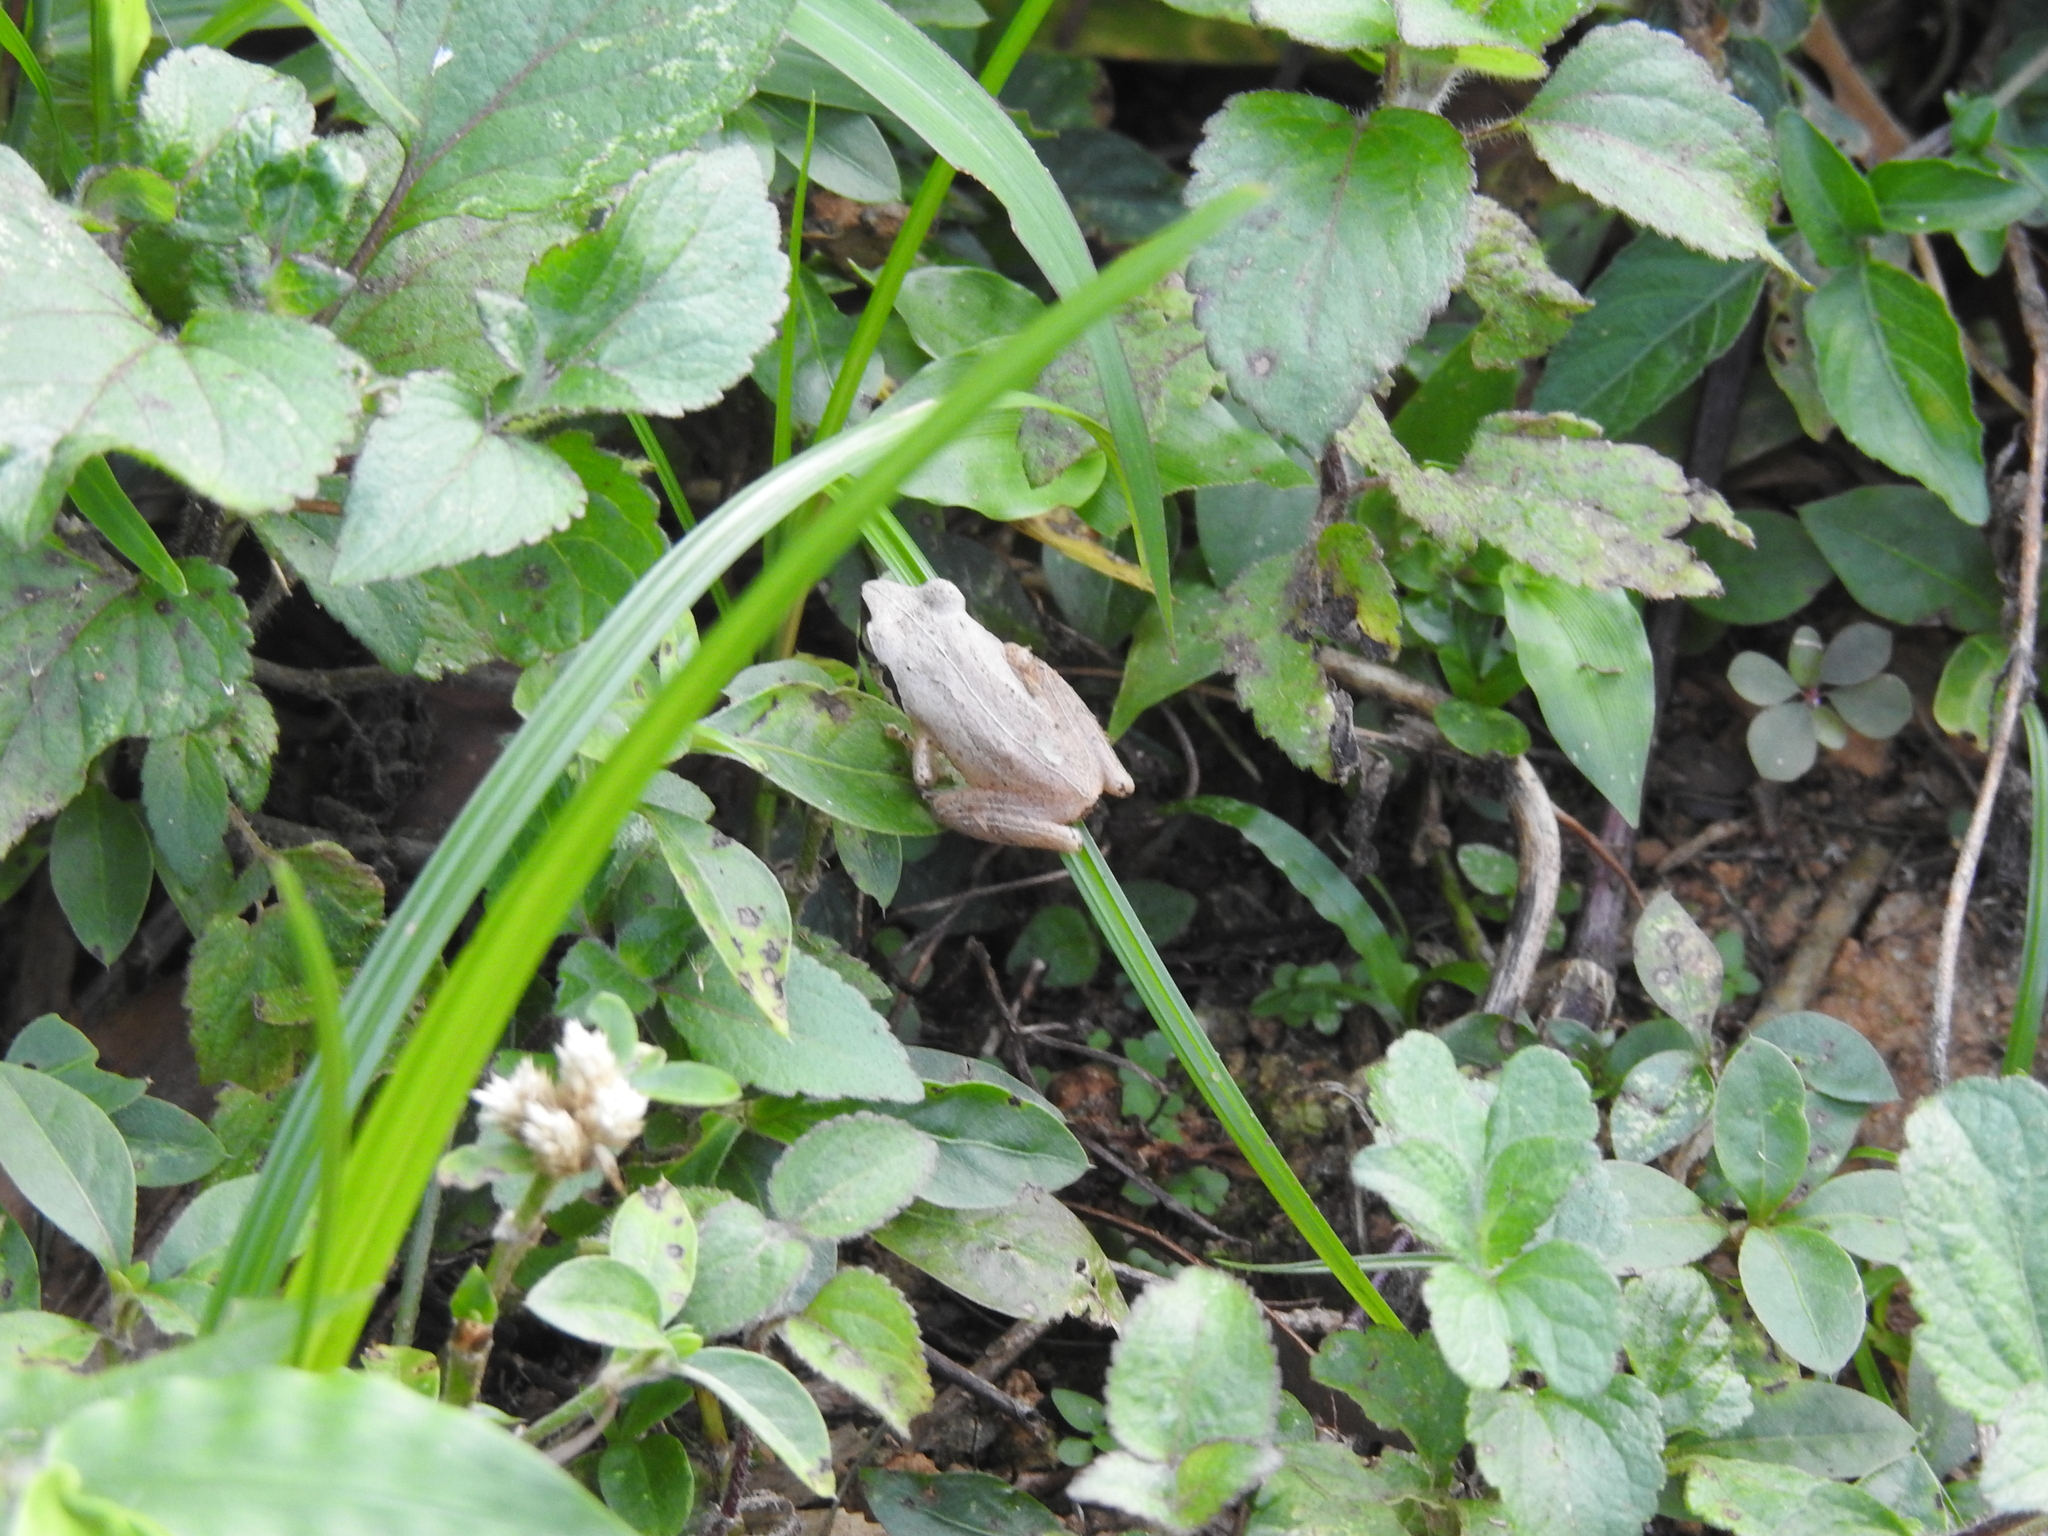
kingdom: Animalia
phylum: Chordata
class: Amphibia
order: Anura
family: Rhacophoridae
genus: Pseudophilautus
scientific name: Pseudophilautus wynaadensis
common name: Dark-eared bush frog
